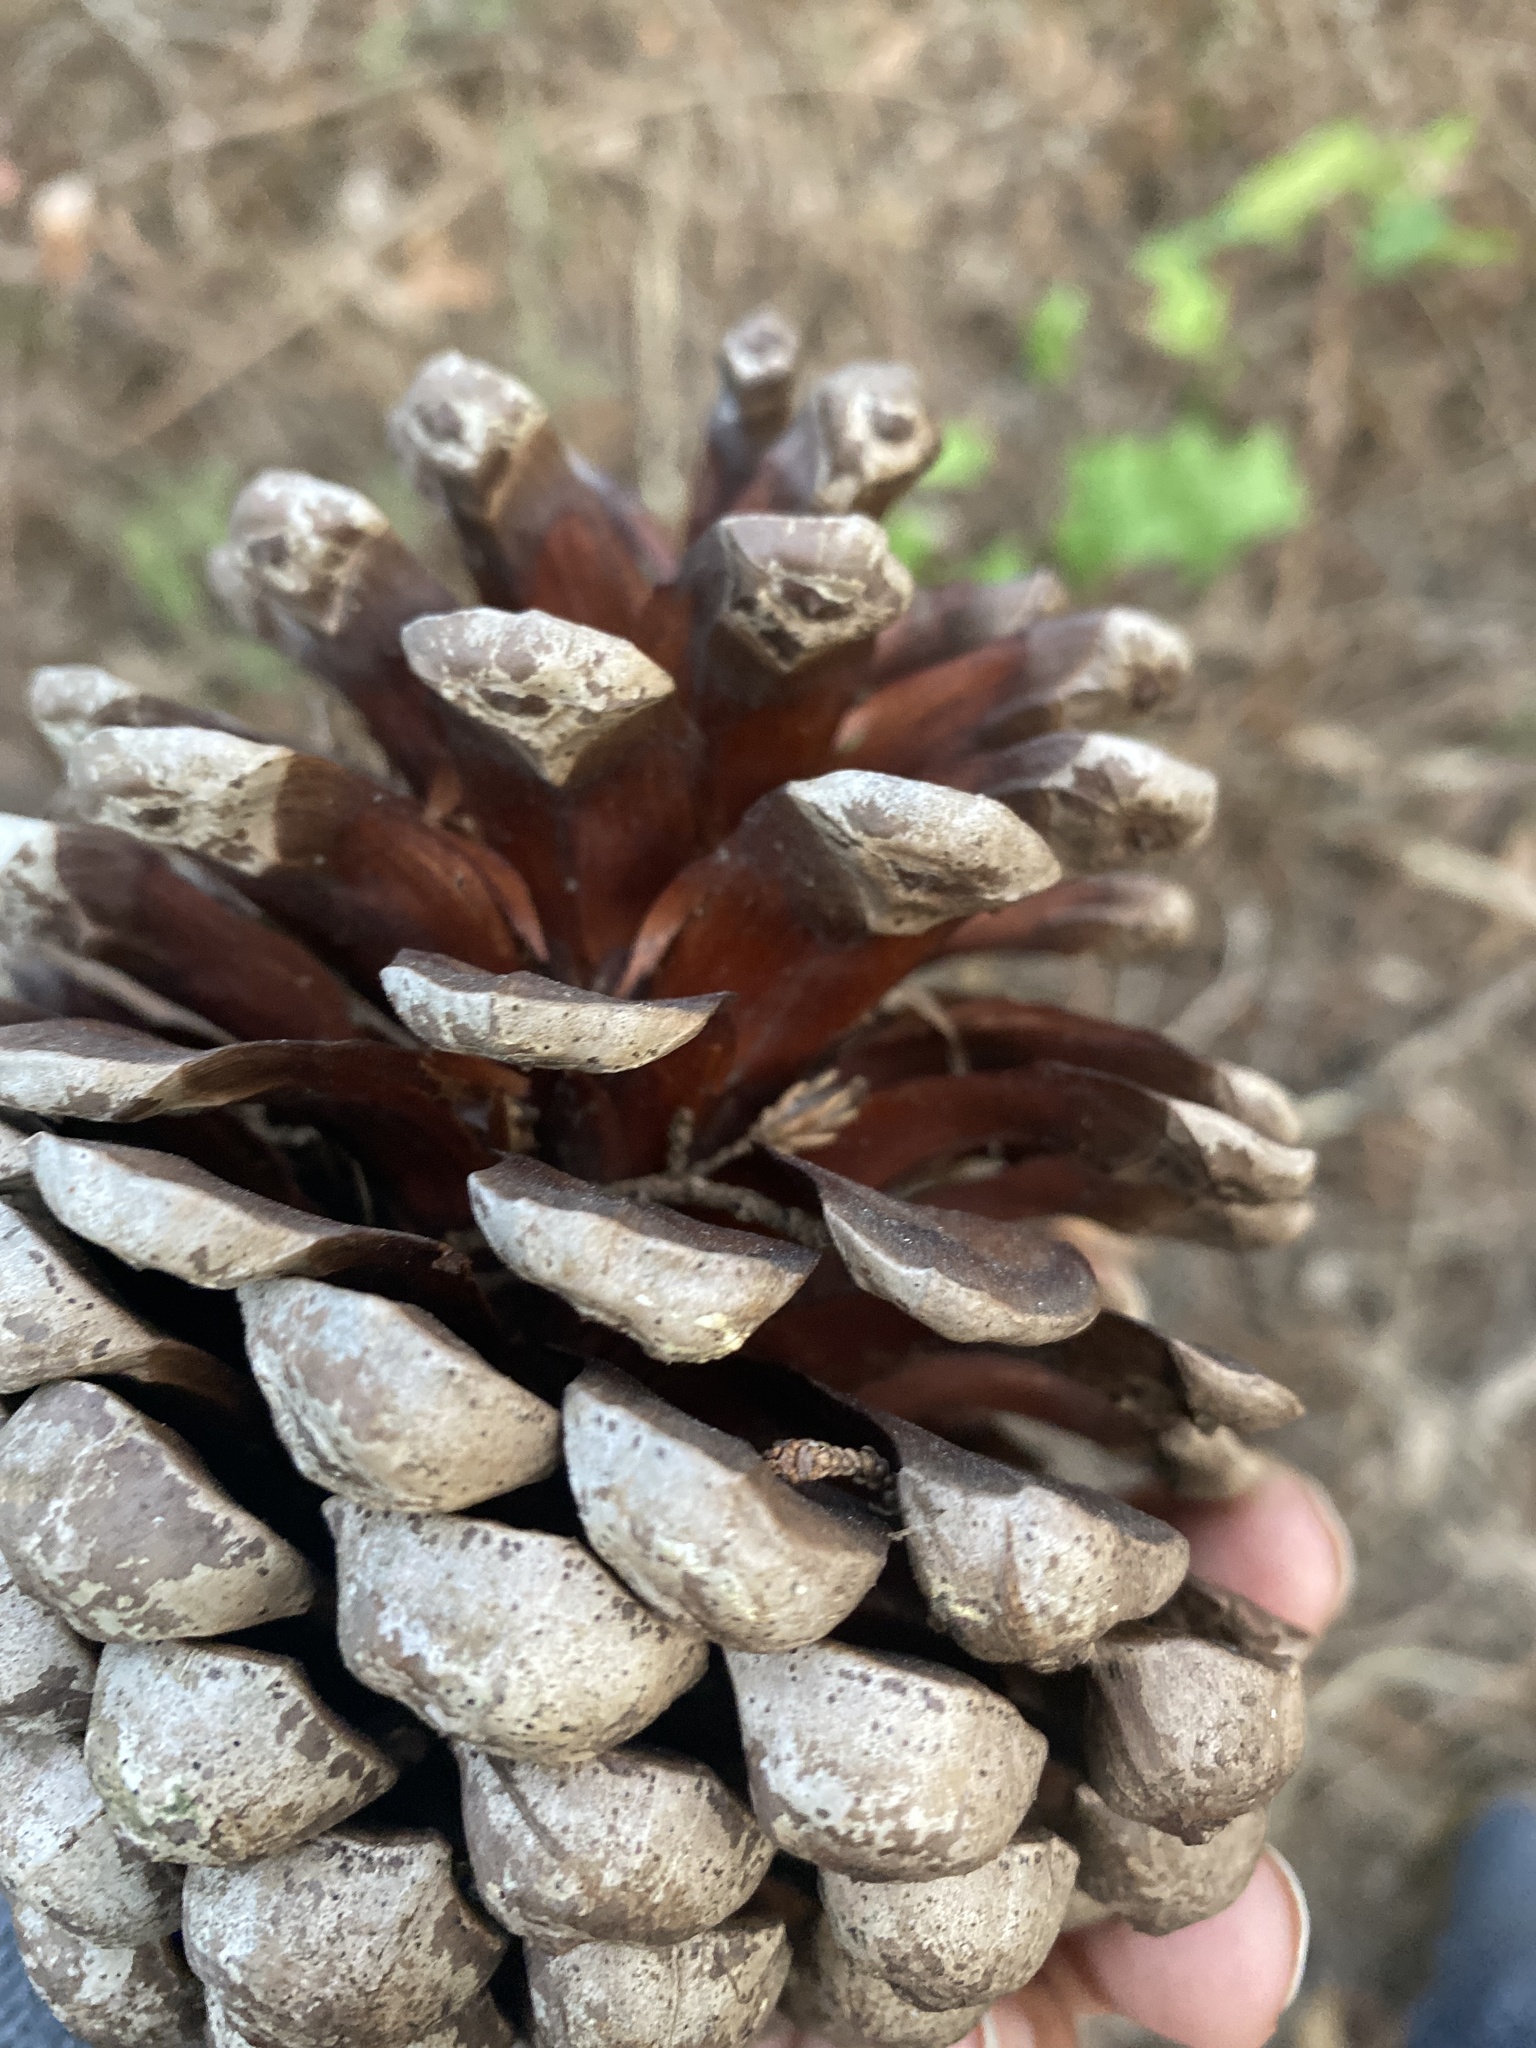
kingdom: Plantae
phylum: Tracheophyta
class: Pinopsida
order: Pinales
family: Pinaceae
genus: Pinus
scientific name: Pinus radiata
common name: Monterey pine
